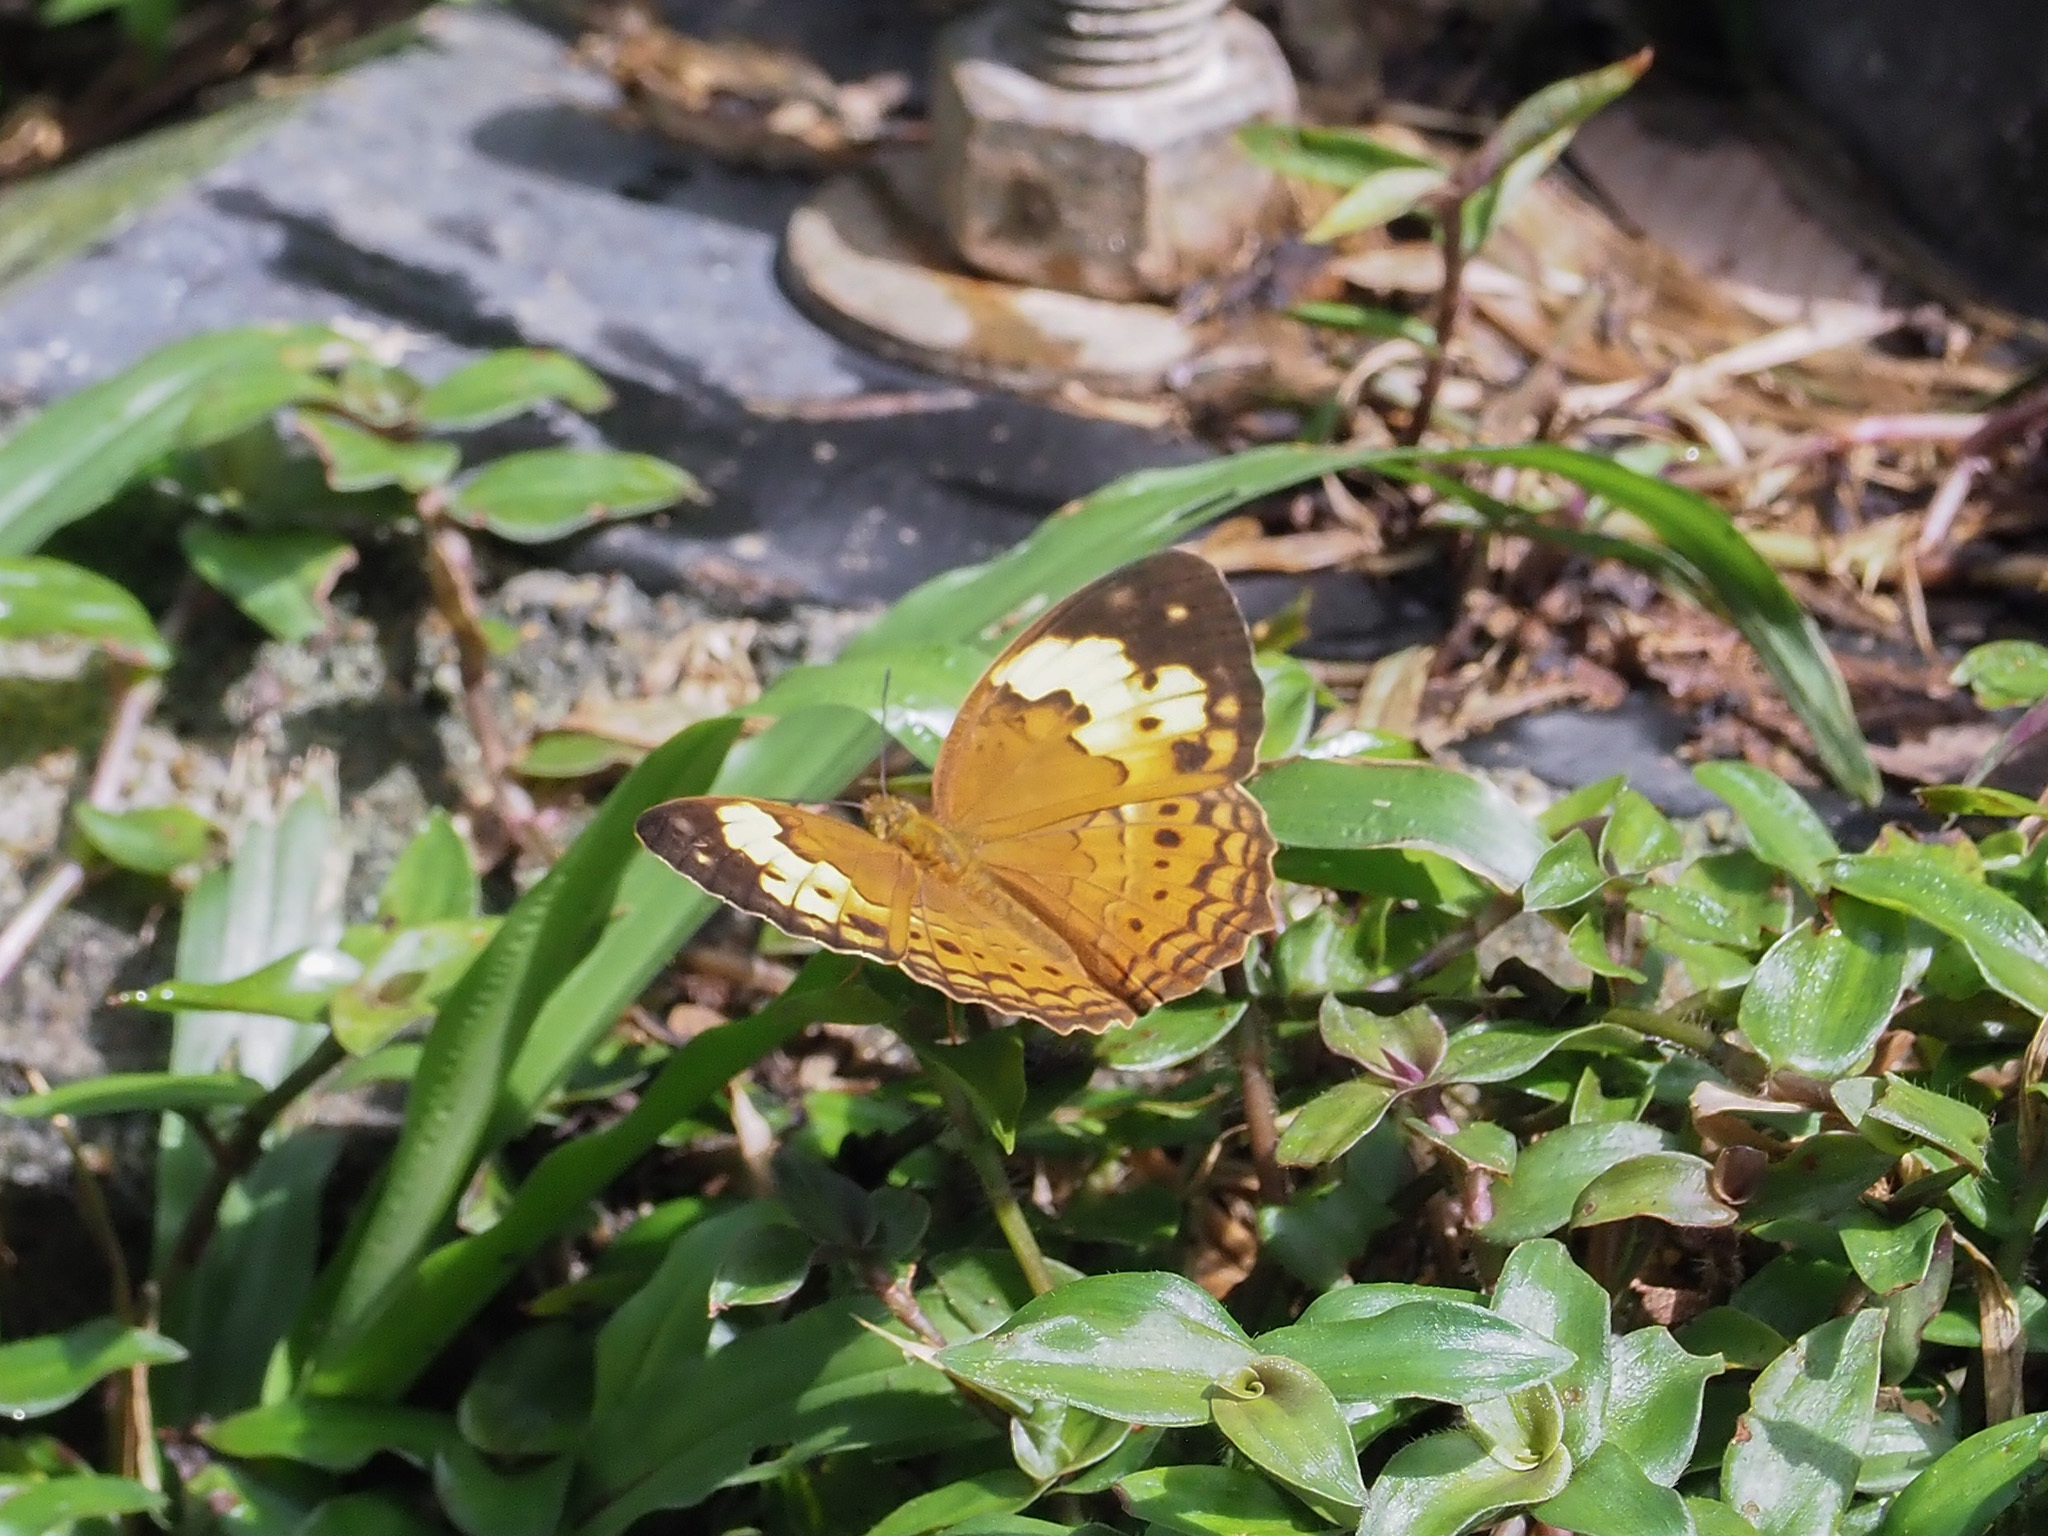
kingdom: Animalia
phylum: Arthropoda
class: Insecta
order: Lepidoptera
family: Nymphalidae
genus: Cupha
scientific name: Cupha erymanthis
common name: Rustic
